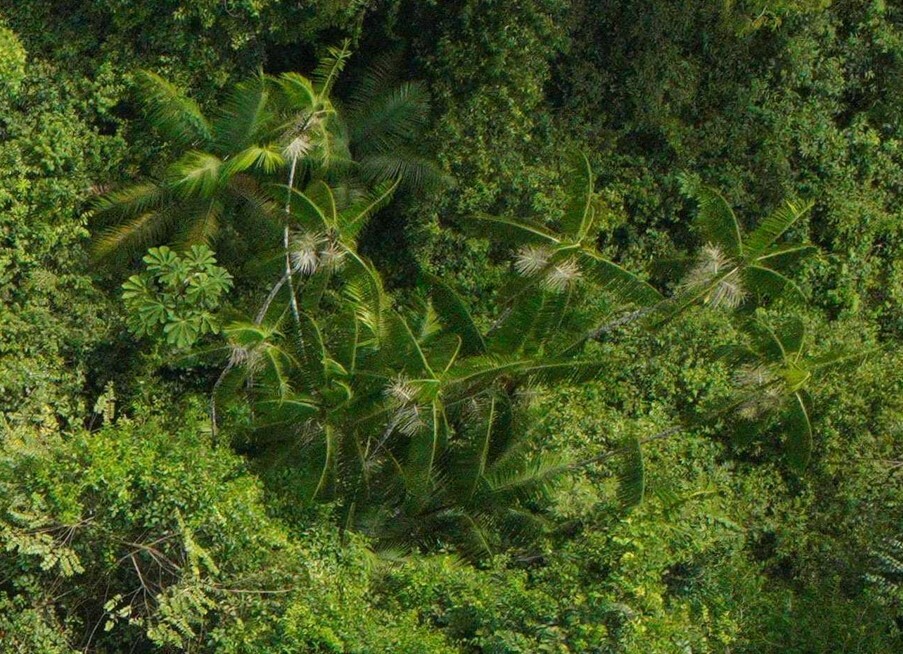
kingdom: Plantae
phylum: Tracheophyta
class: Liliopsida
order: Arecales
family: Arecaceae
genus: Euterpe
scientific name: Euterpe oleracea
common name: Assai palm
